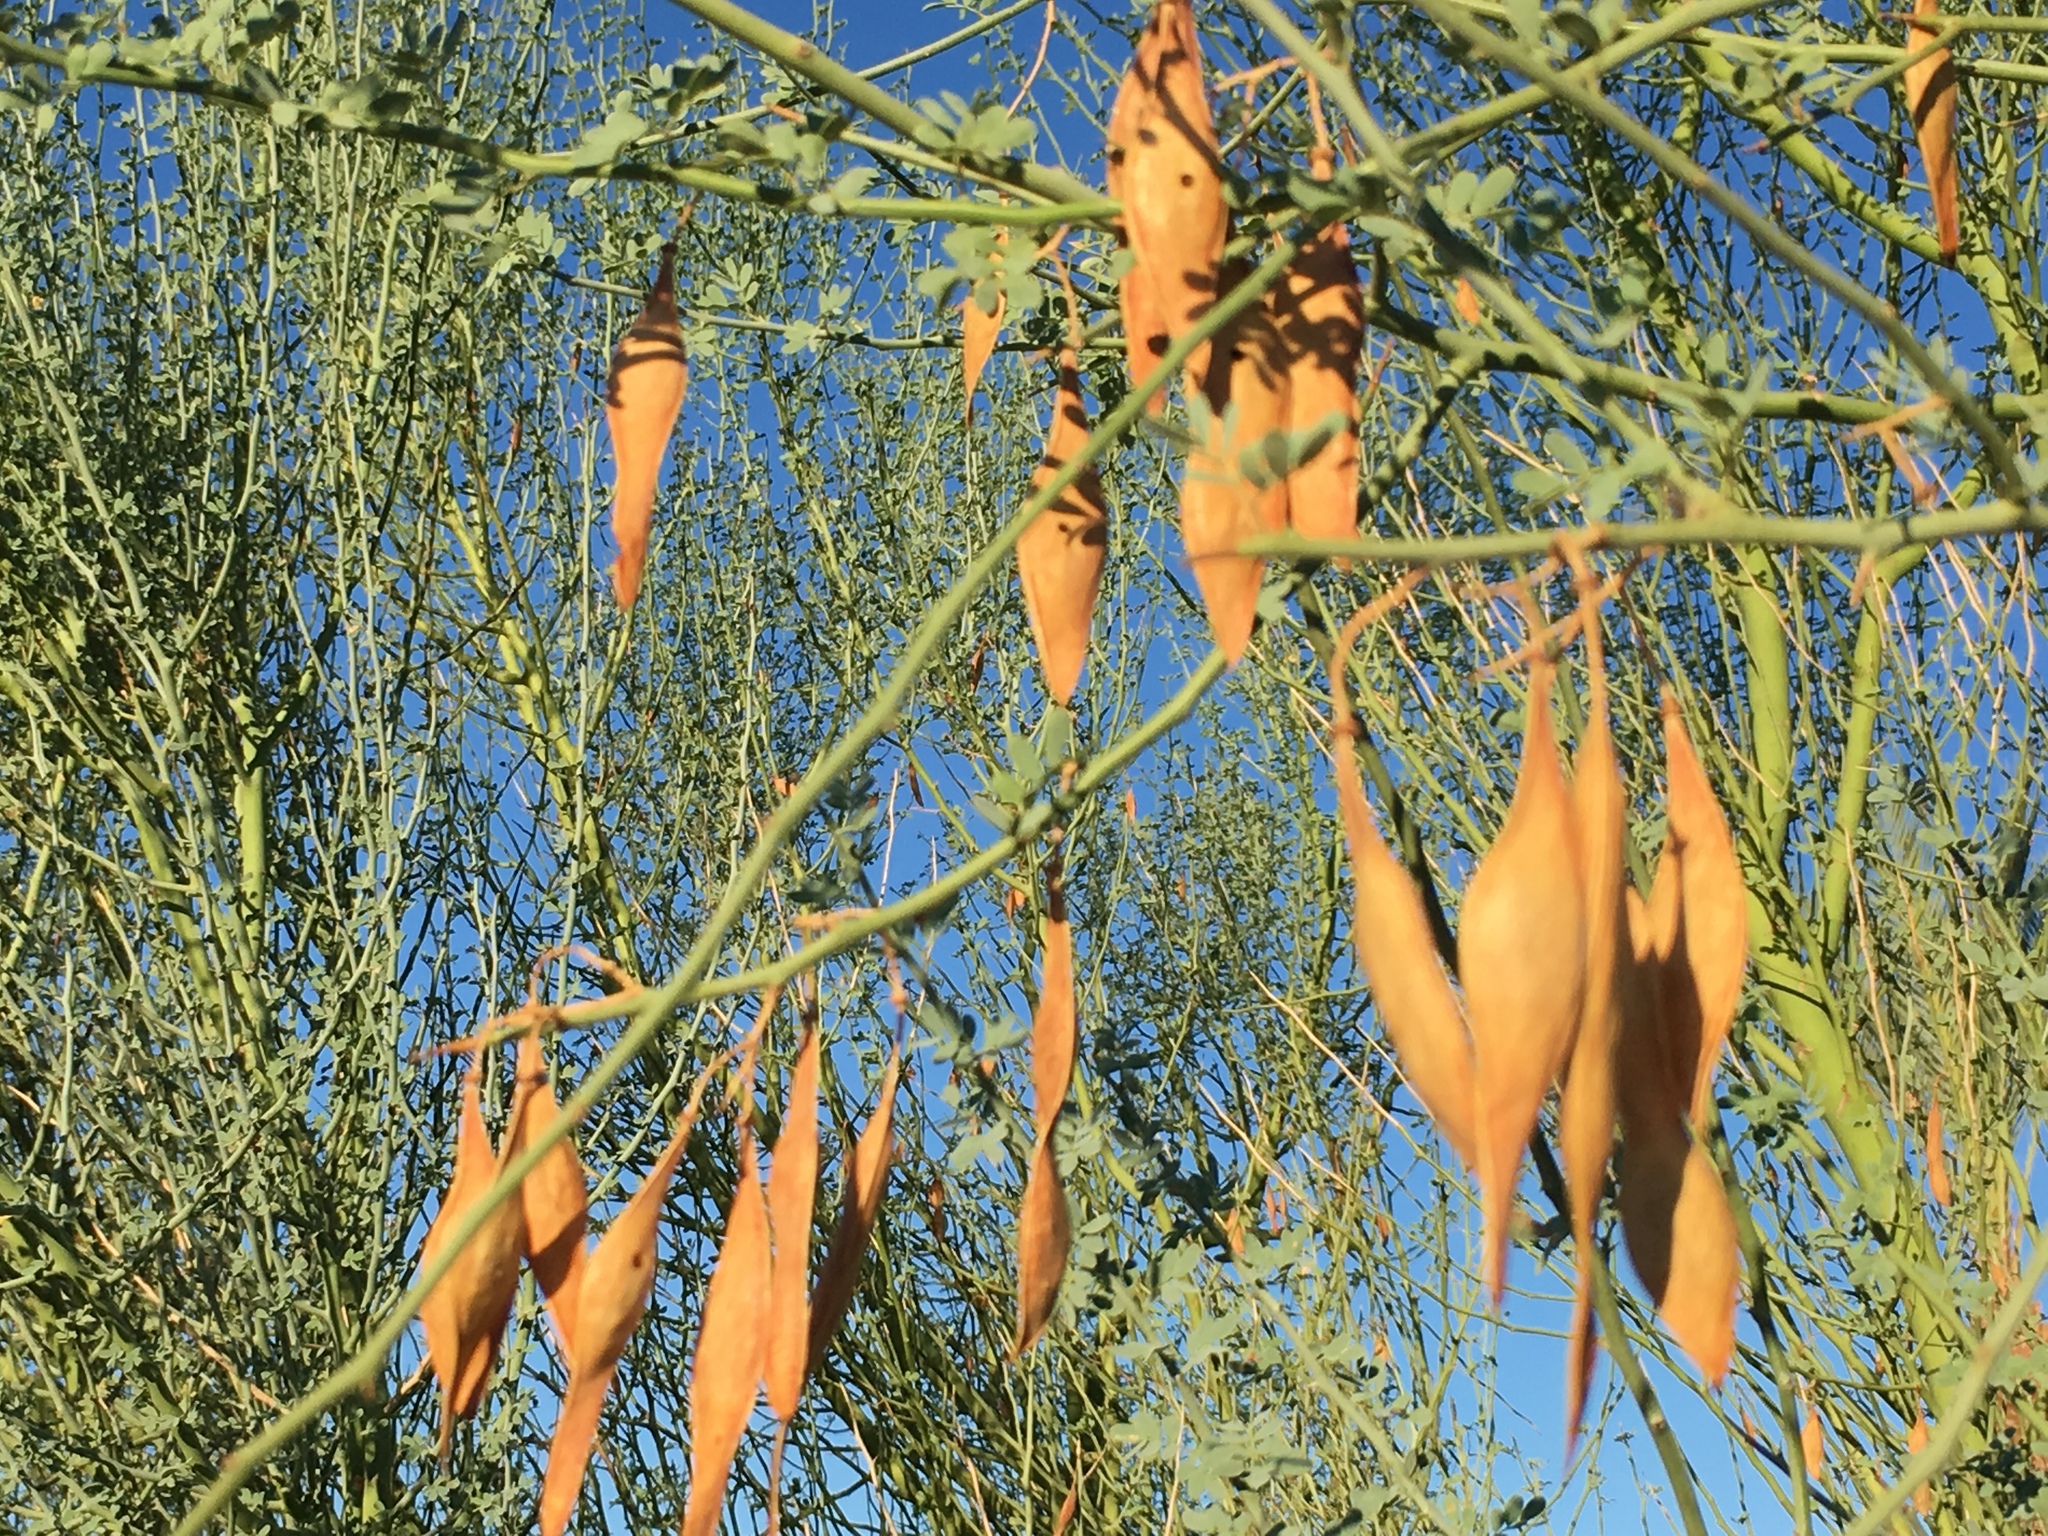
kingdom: Plantae
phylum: Tracheophyta
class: Magnoliopsida
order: Fabales
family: Fabaceae
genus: Parkinsonia
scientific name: Parkinsonia florida
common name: Blue paloverde
